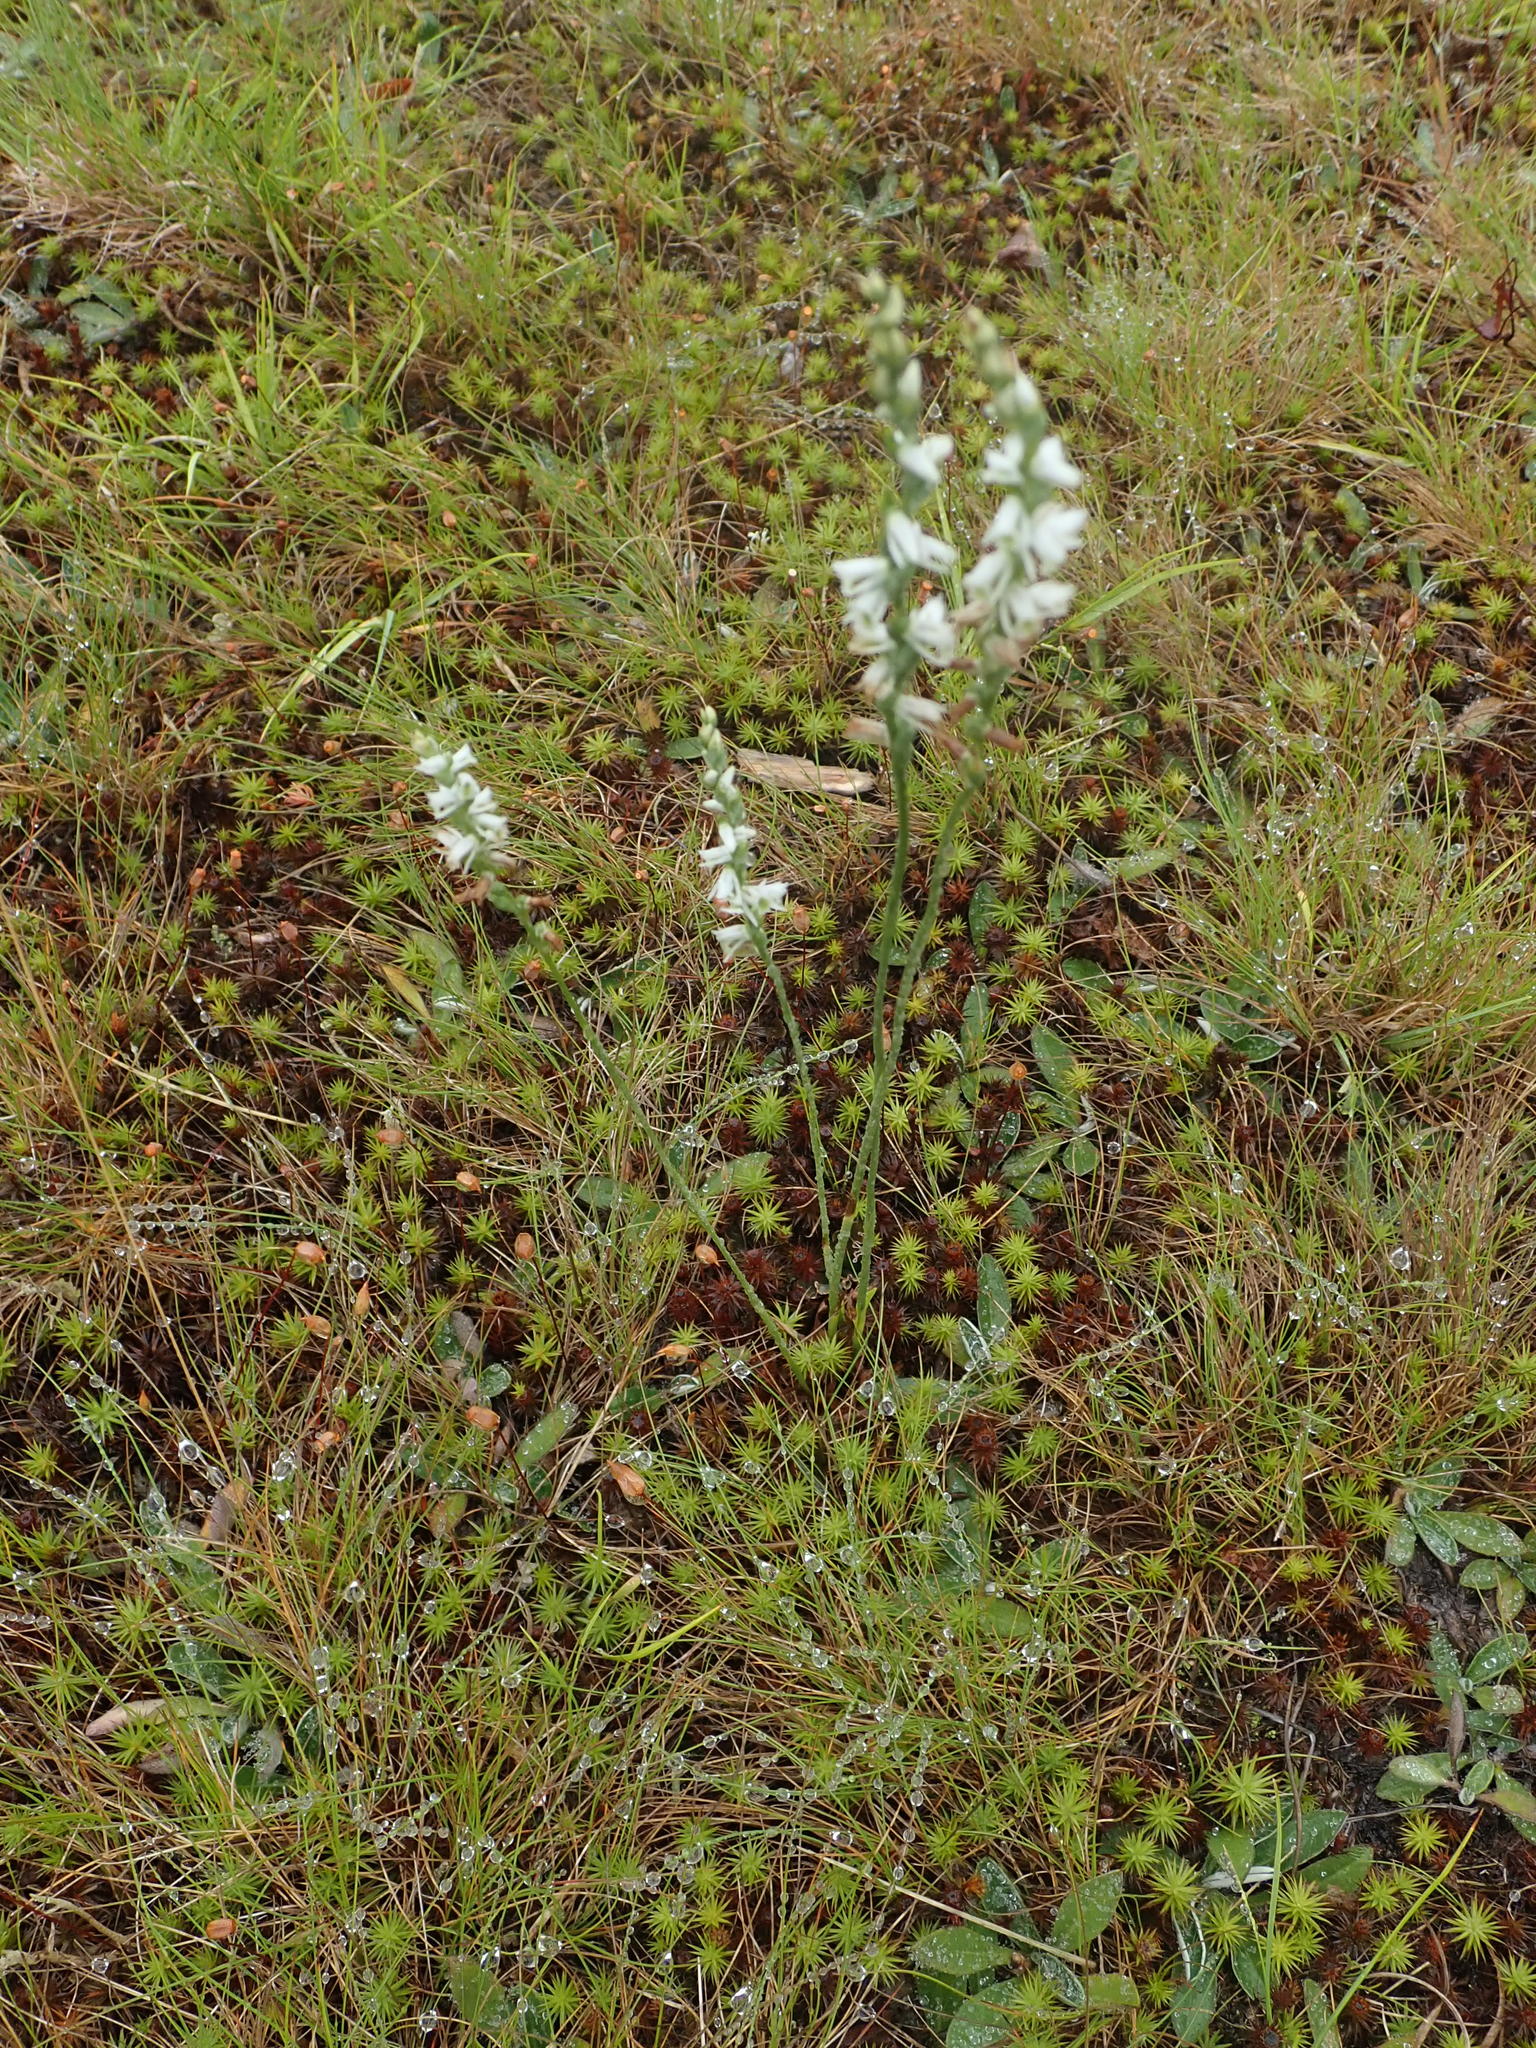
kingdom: Plantae
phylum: Tracheophyta
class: Liliopsida
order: Asparagales
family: Orchidaceae
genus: Spiranthes
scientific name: Spiranthes lacera
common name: Northern slender ladies'-tresses
